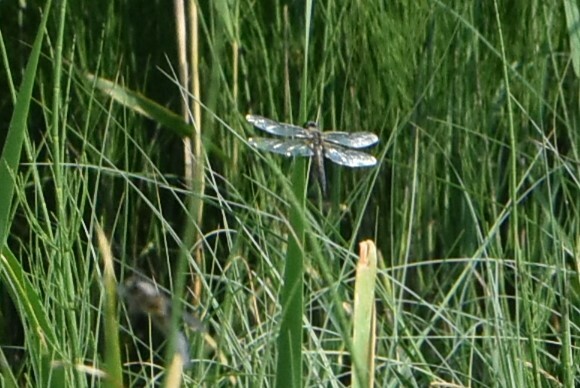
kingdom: Animalia
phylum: Arthropoda
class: Insecta
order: Odonata
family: Libellulidae
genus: Libellula
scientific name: Libellula quadrimaculata
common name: Four-spotted chaser
